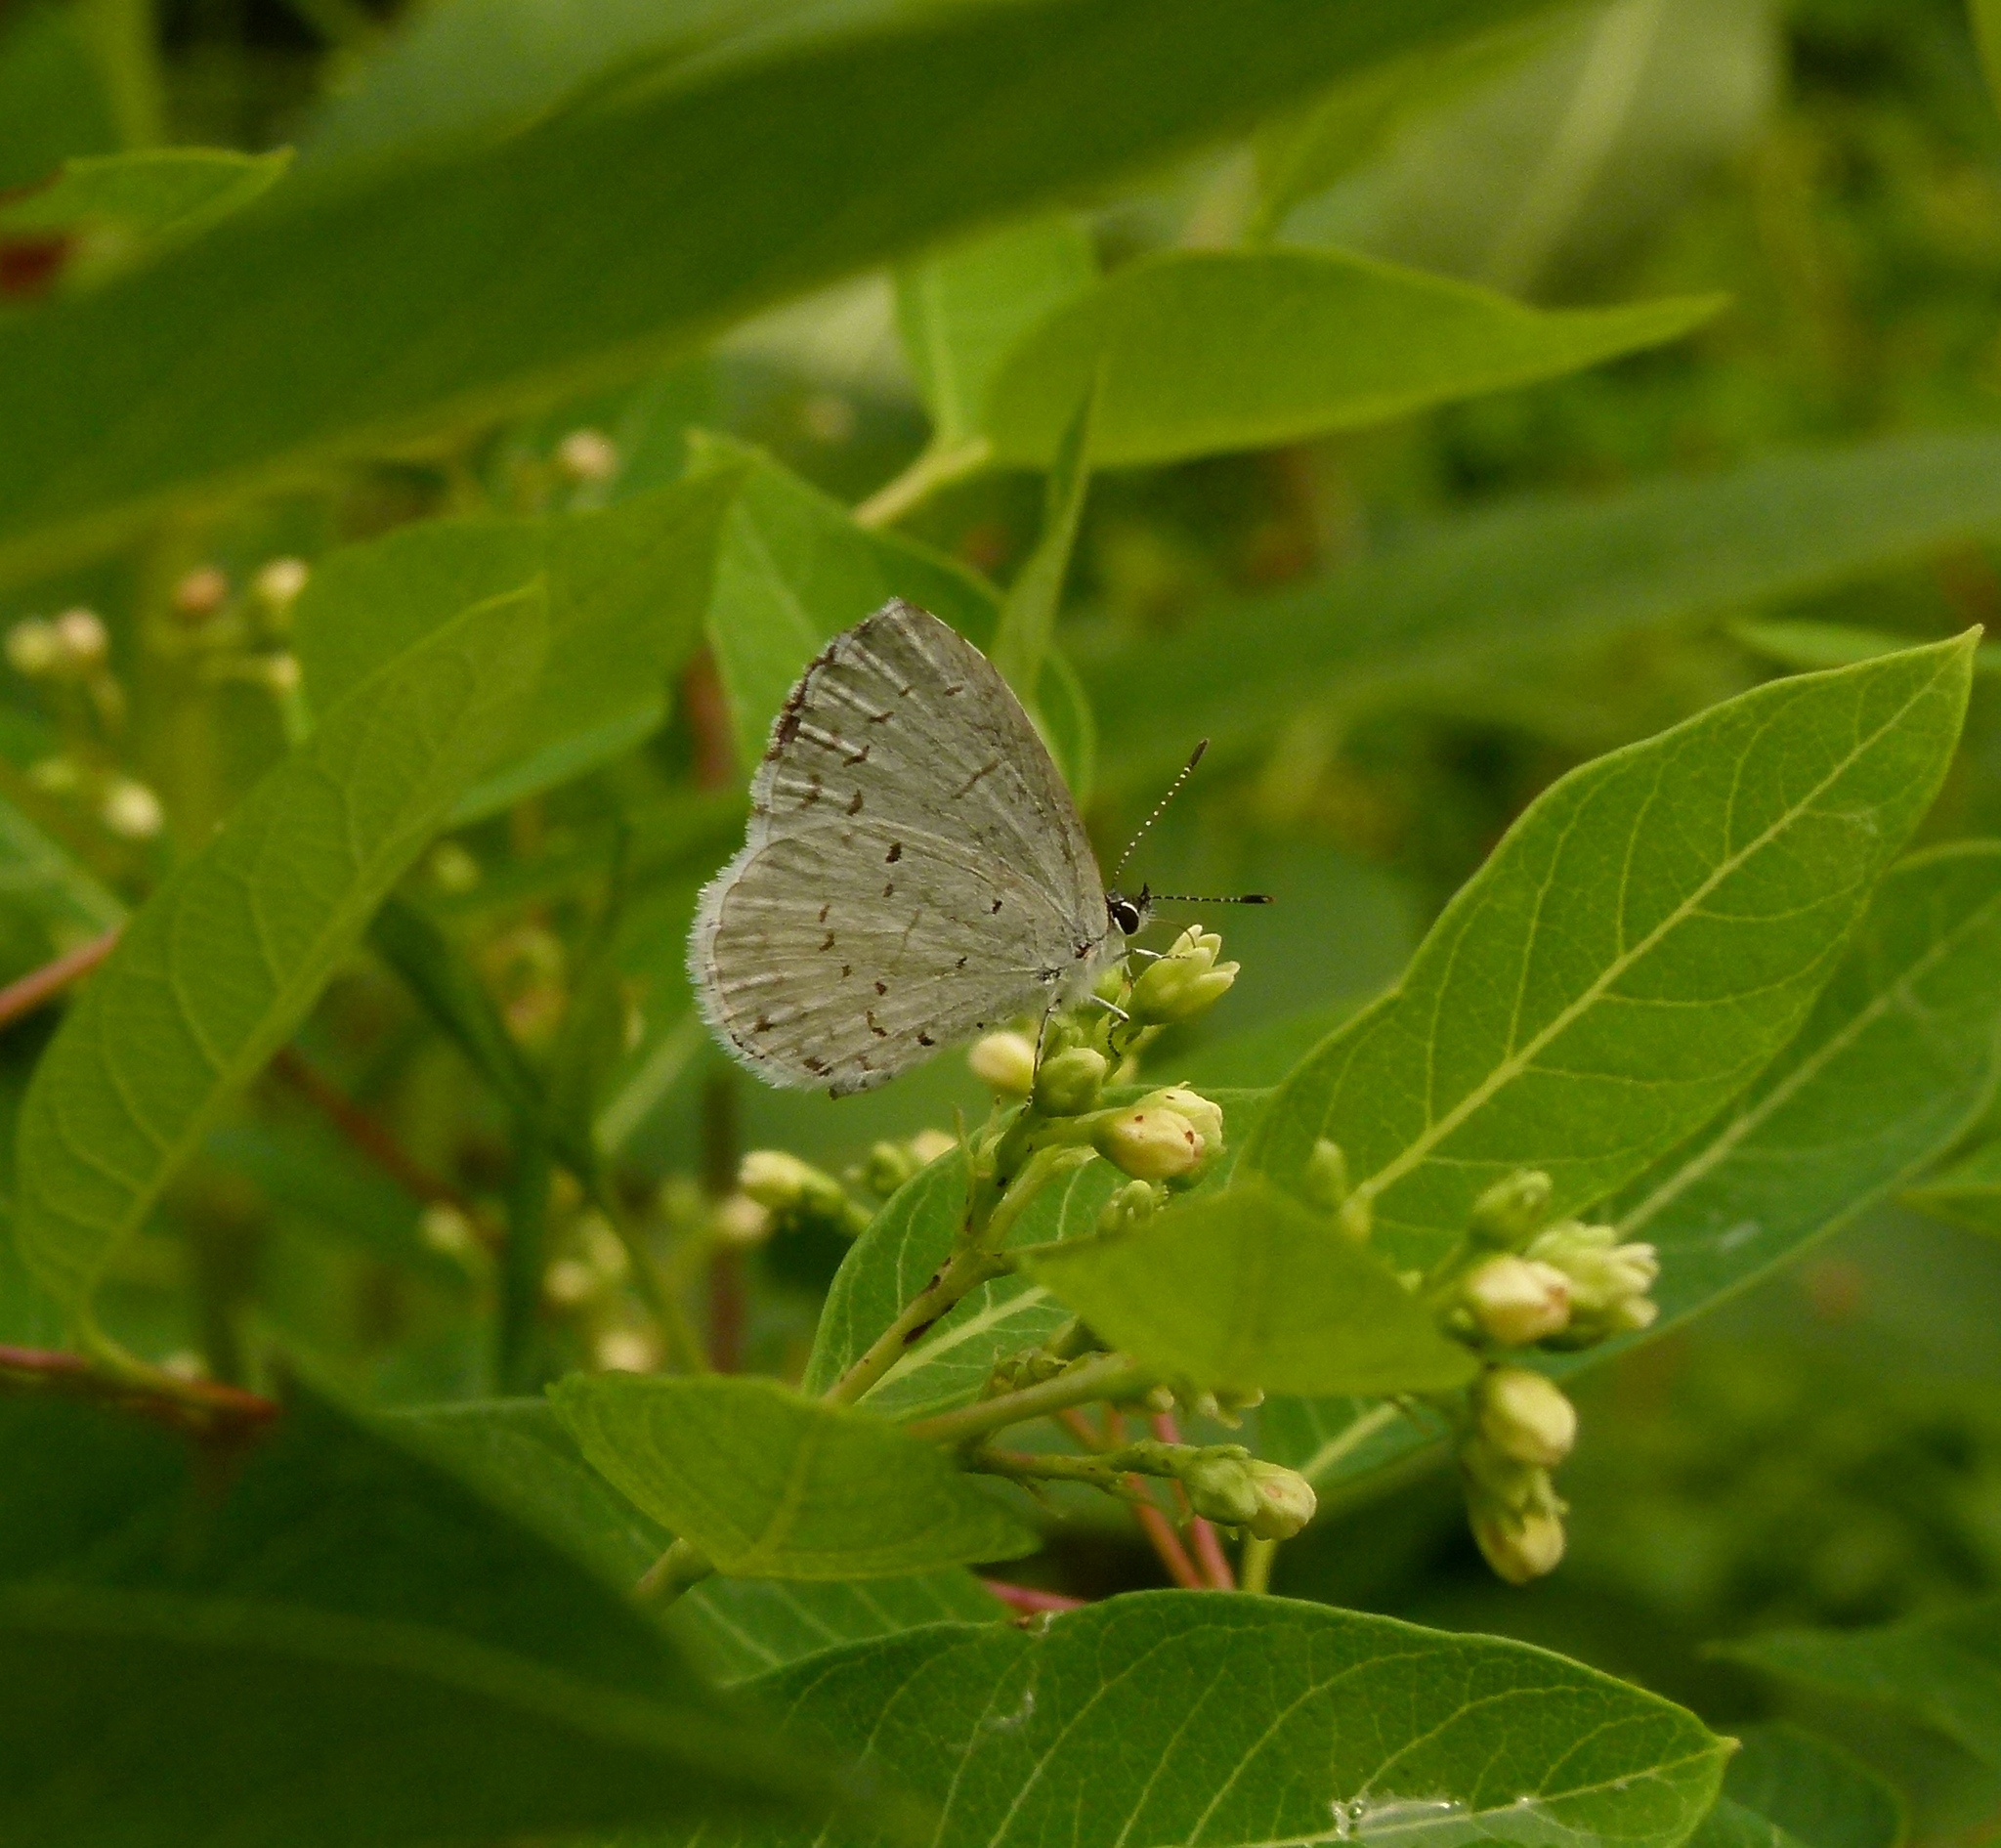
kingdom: Animalia
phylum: Arthropoda
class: Insecta
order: Lepidoptera
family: Lycaenidae
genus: Cyaniris
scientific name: Cyaniris neglecta
